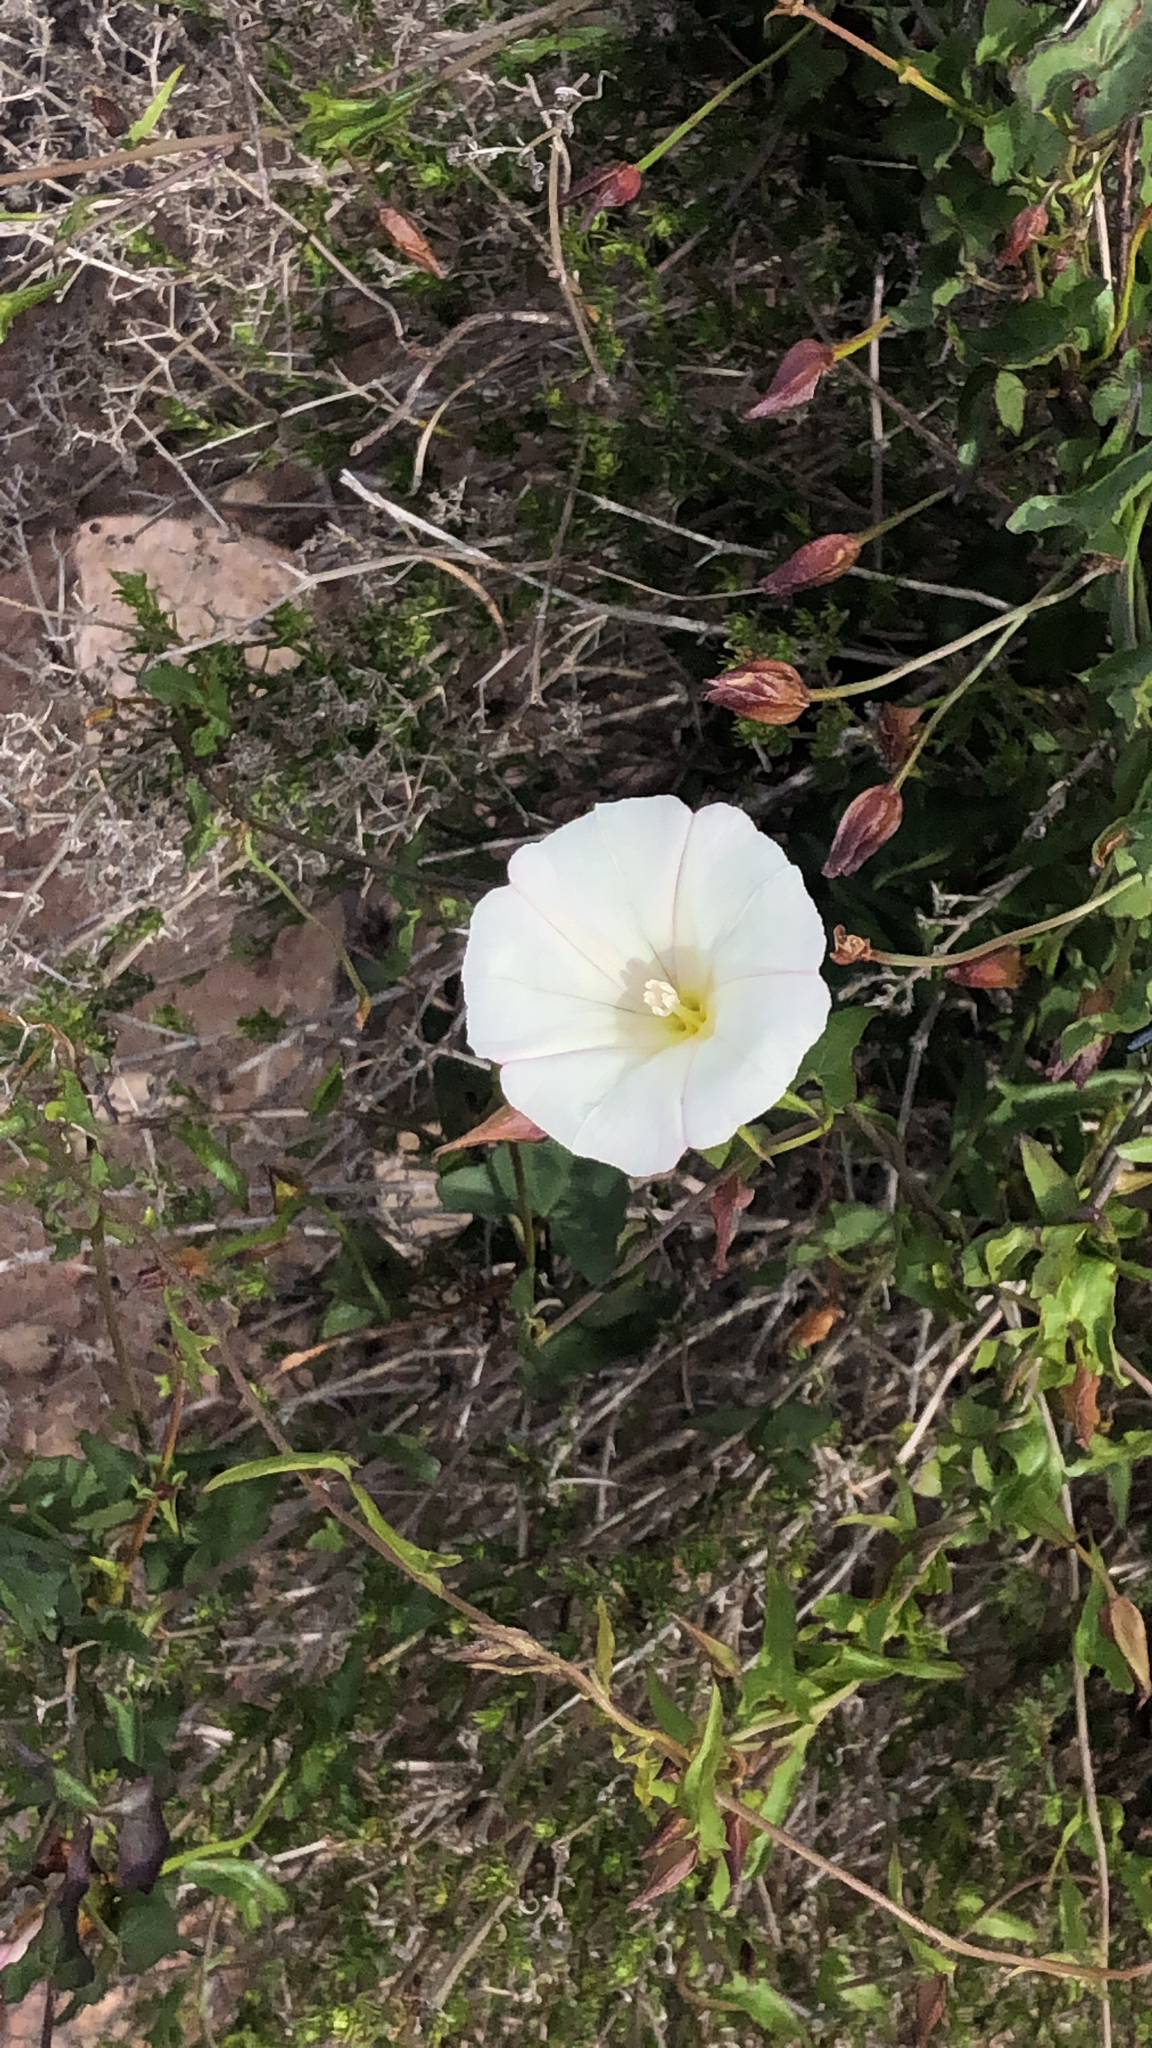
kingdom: Plantae
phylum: Tracheophyta
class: Magnoliopsida
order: Solanales
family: Convolvulaceae
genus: Calystegia
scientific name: Calystegia macrostegia
